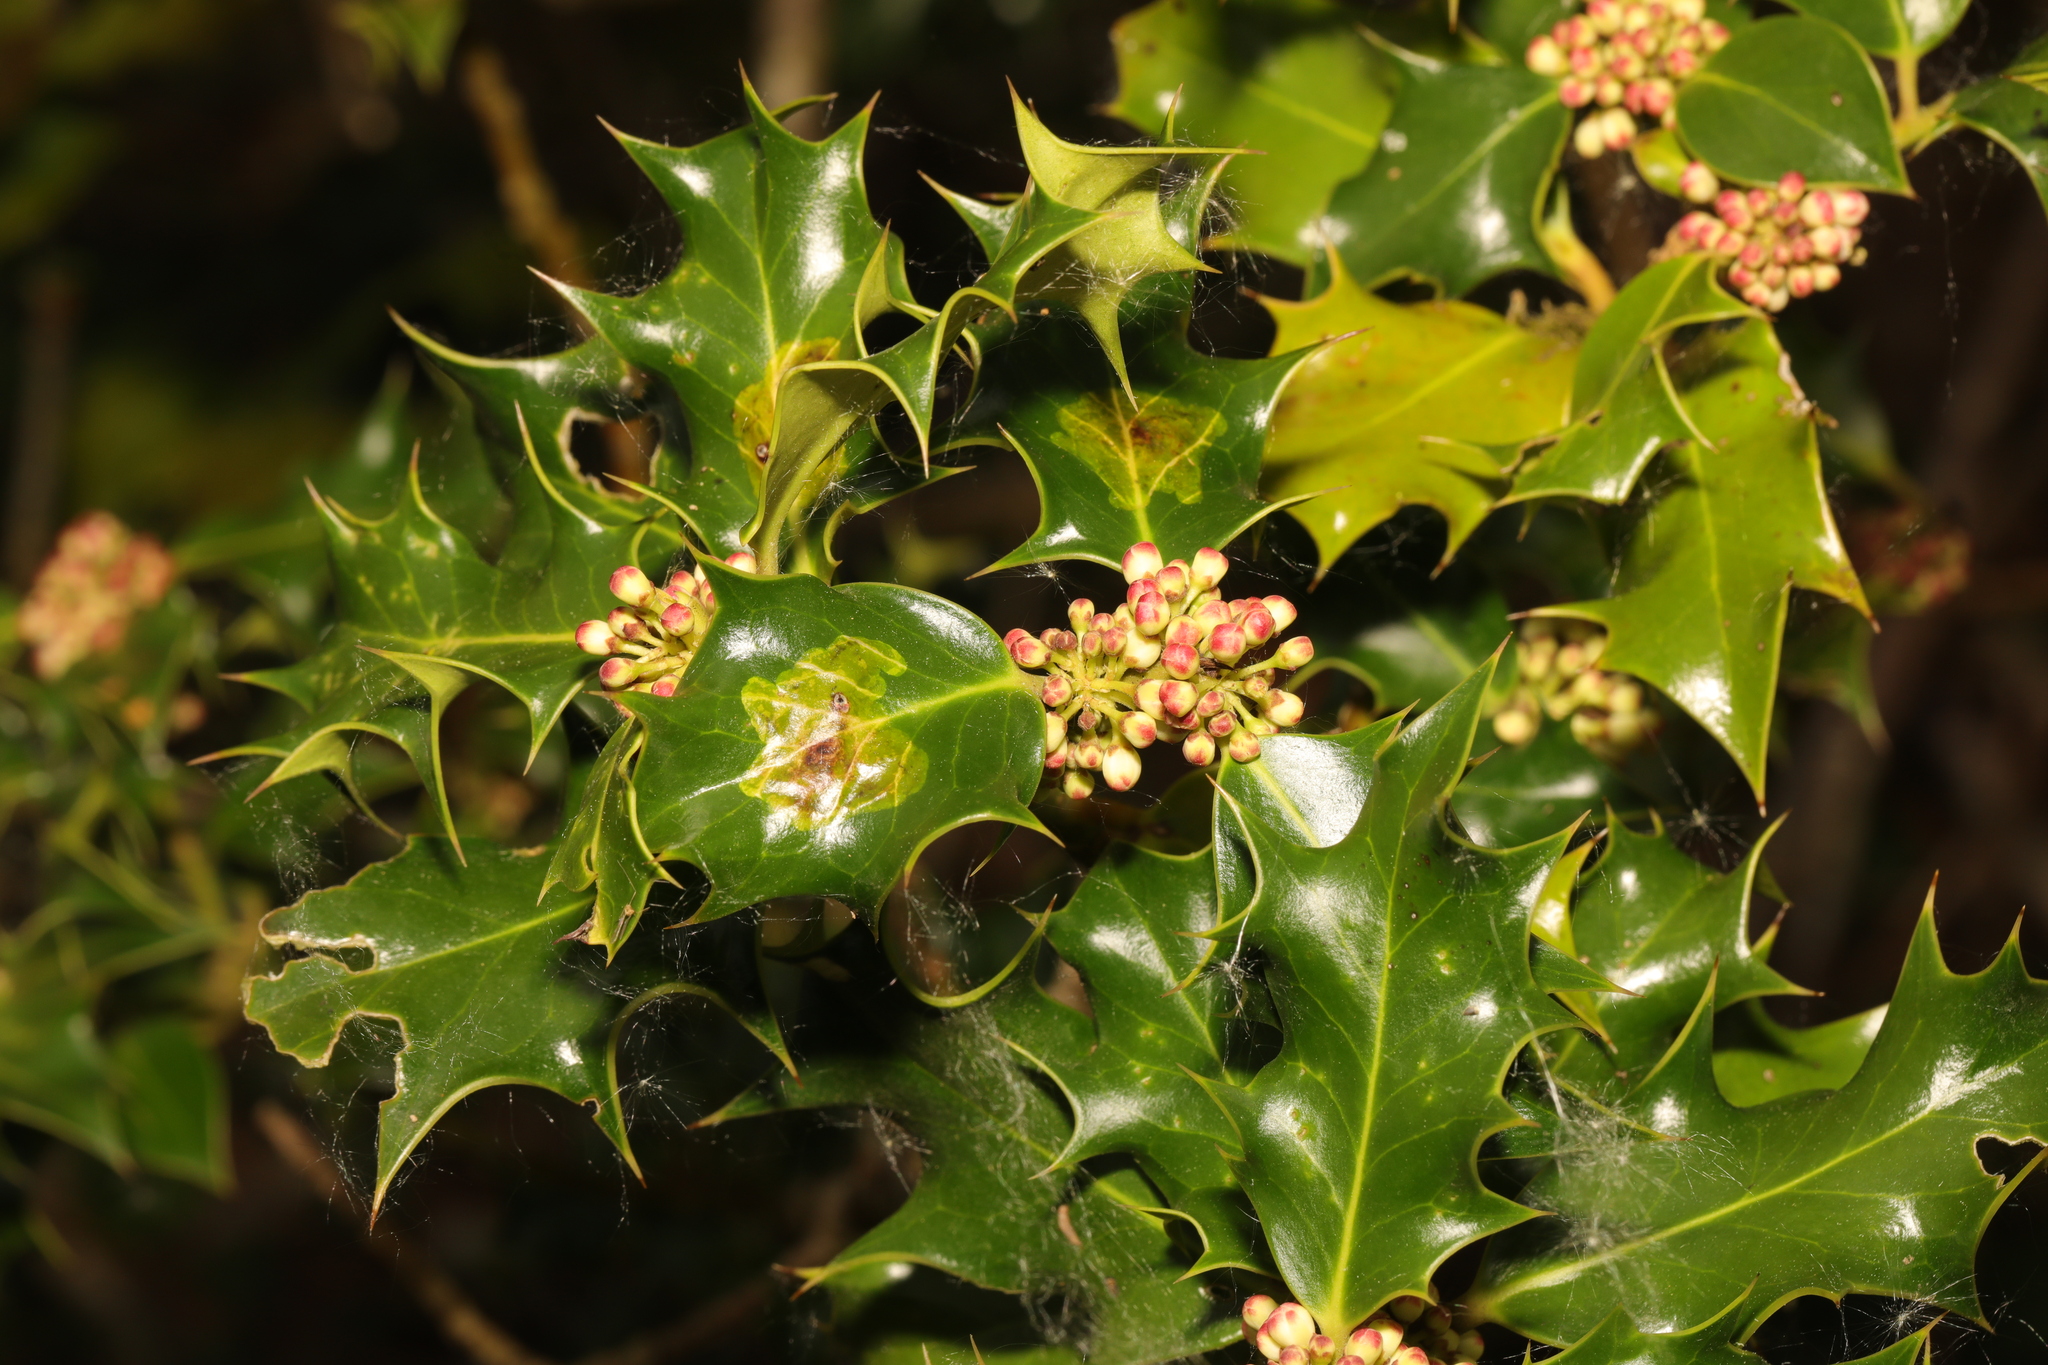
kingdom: Plantae
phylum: Tracheophyta
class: Magnoliopsida
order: Aquifoliales
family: Aquifoliaceae
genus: Ilex
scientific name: Ilex aquifolium
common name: English holly
